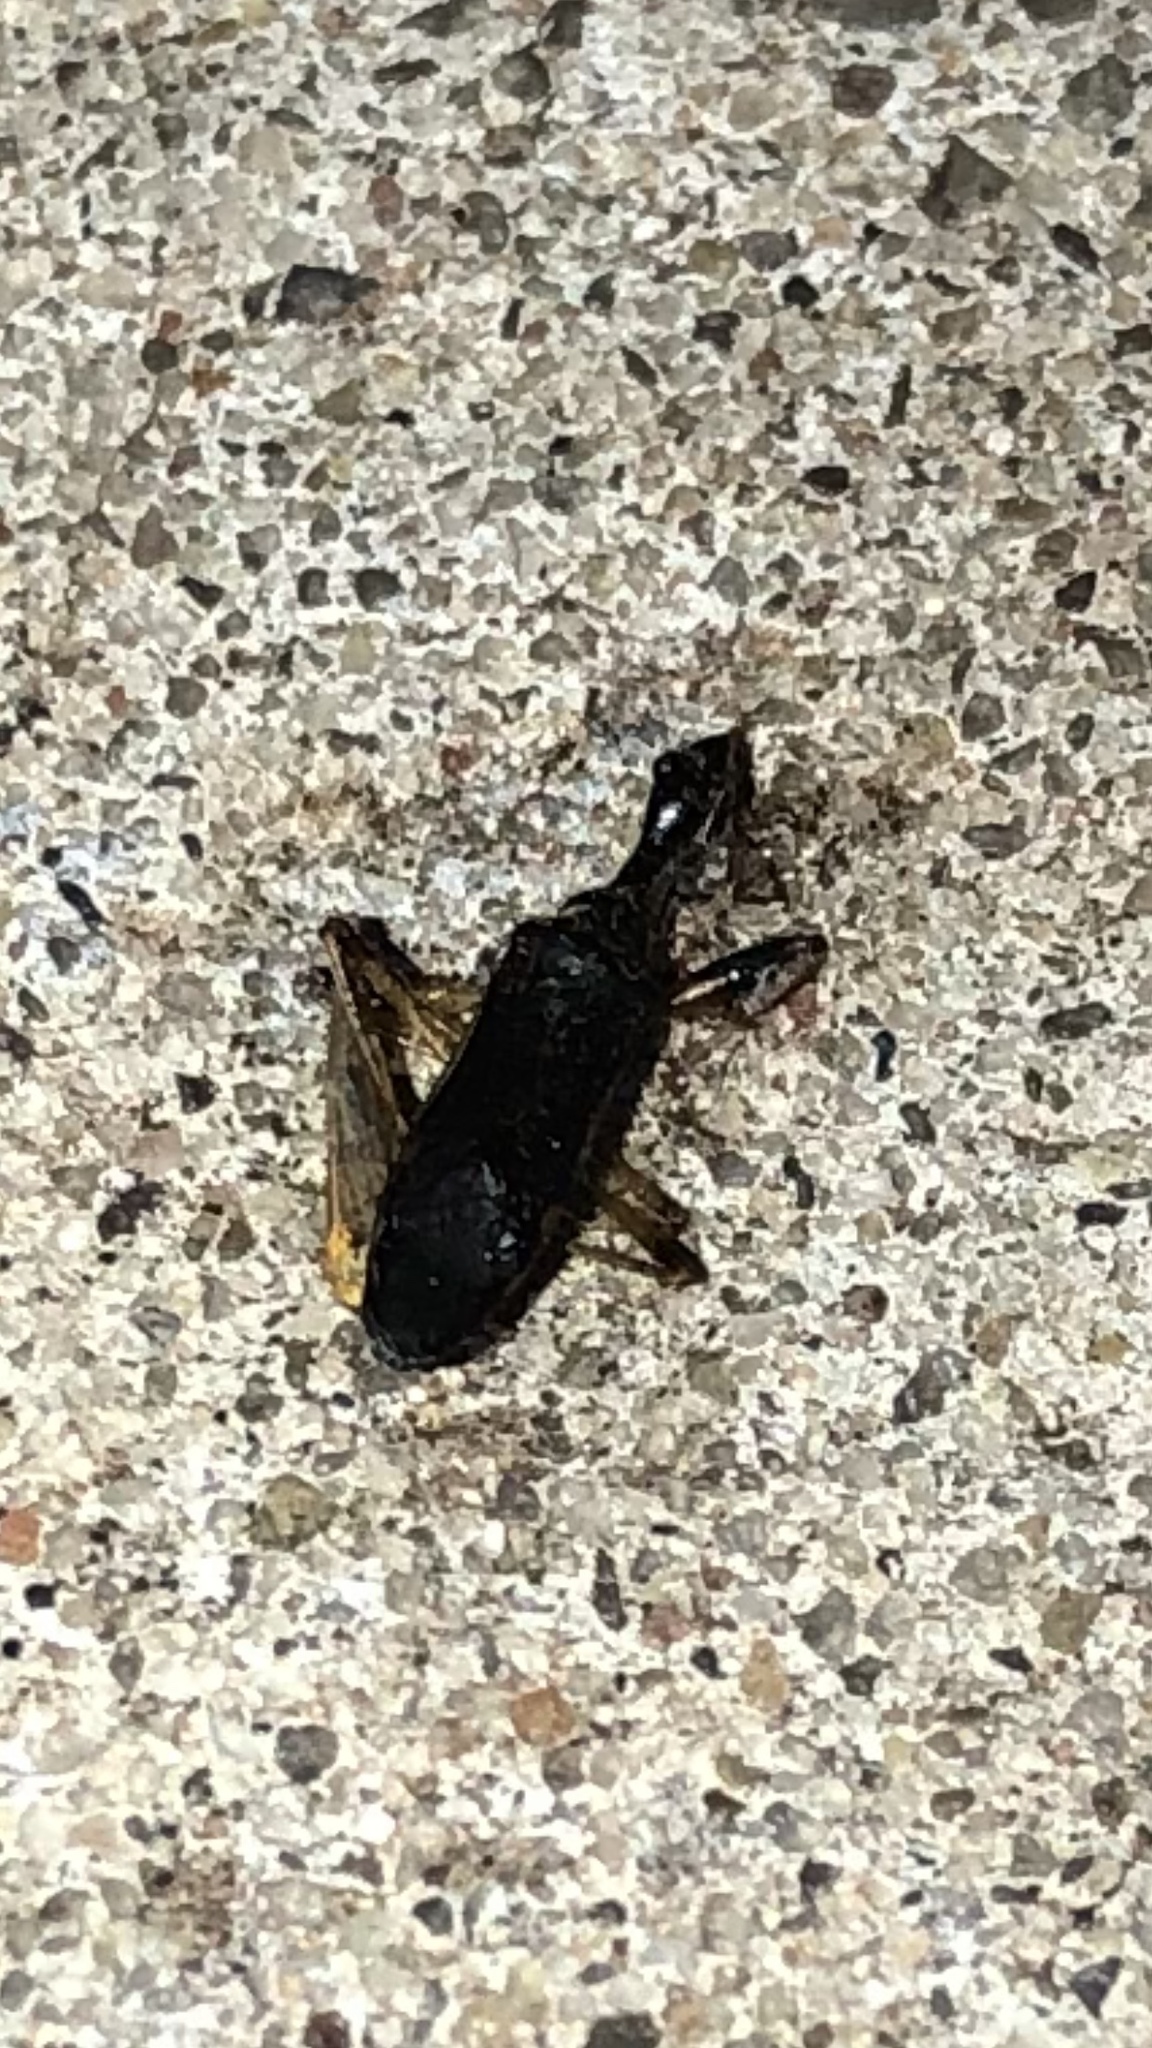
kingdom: Animalia
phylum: Arthropoda
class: Insecta
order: Hemiptera
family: Rhyparochromidae
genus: Myodocha
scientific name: Myodocha serripes
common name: Long-necked seed bug
